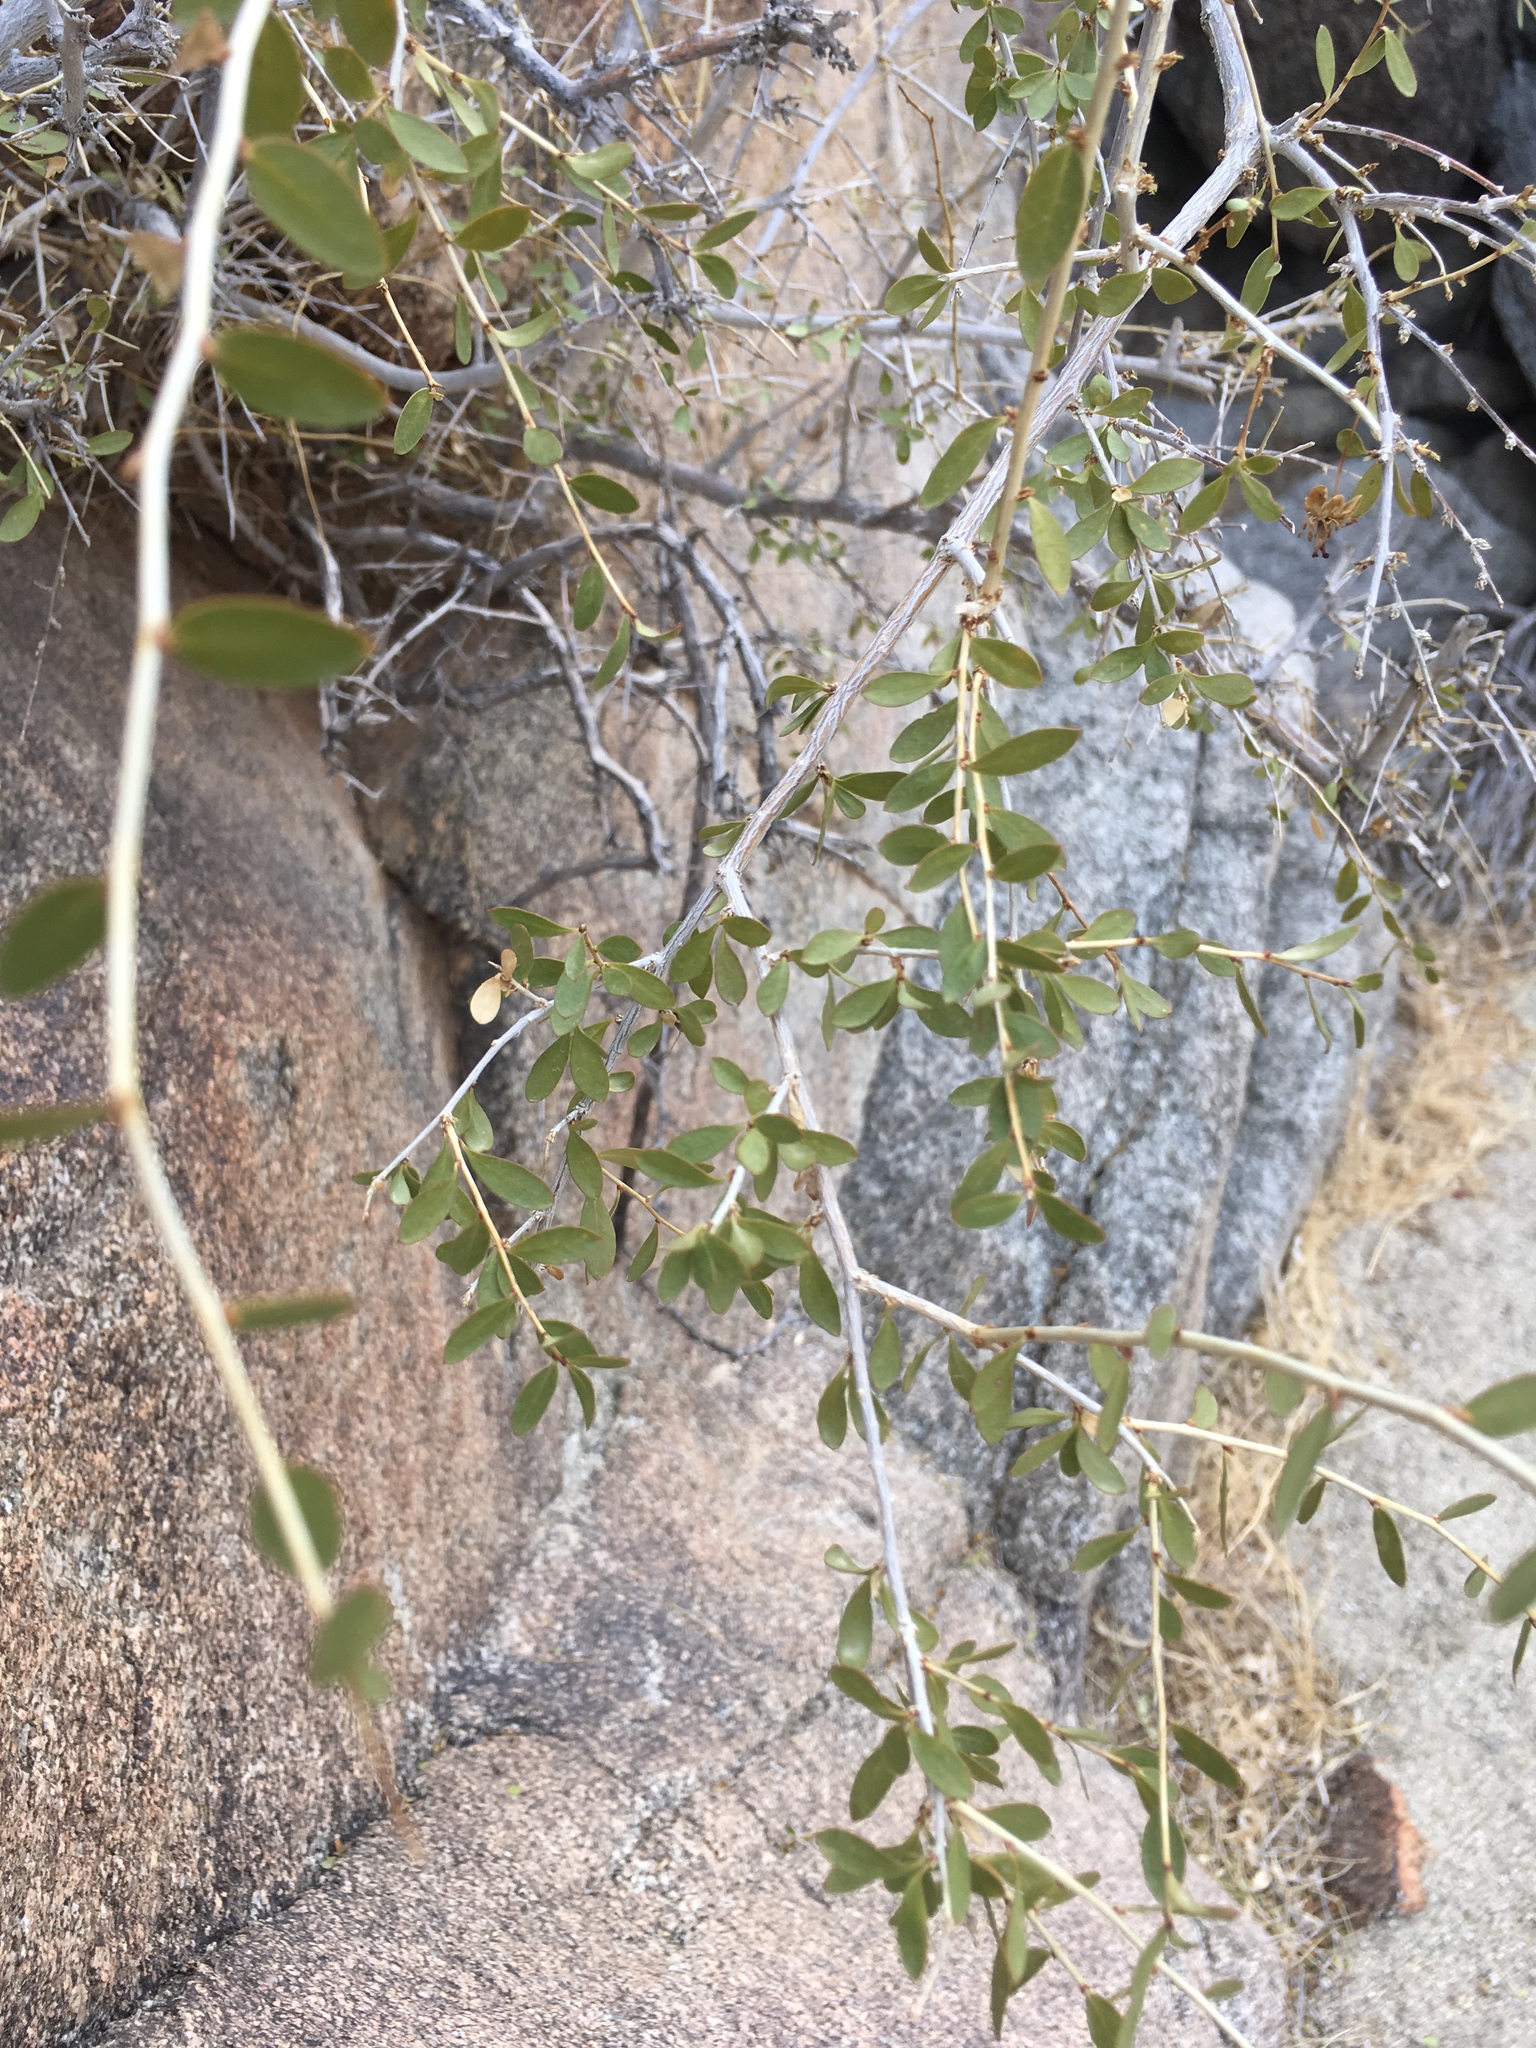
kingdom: Plantae
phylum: Tracheophyta
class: Magnoliopsida
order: Crossosomatales
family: Crossosomataceae
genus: Crossosoma
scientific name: Crossosoma bigelovii
